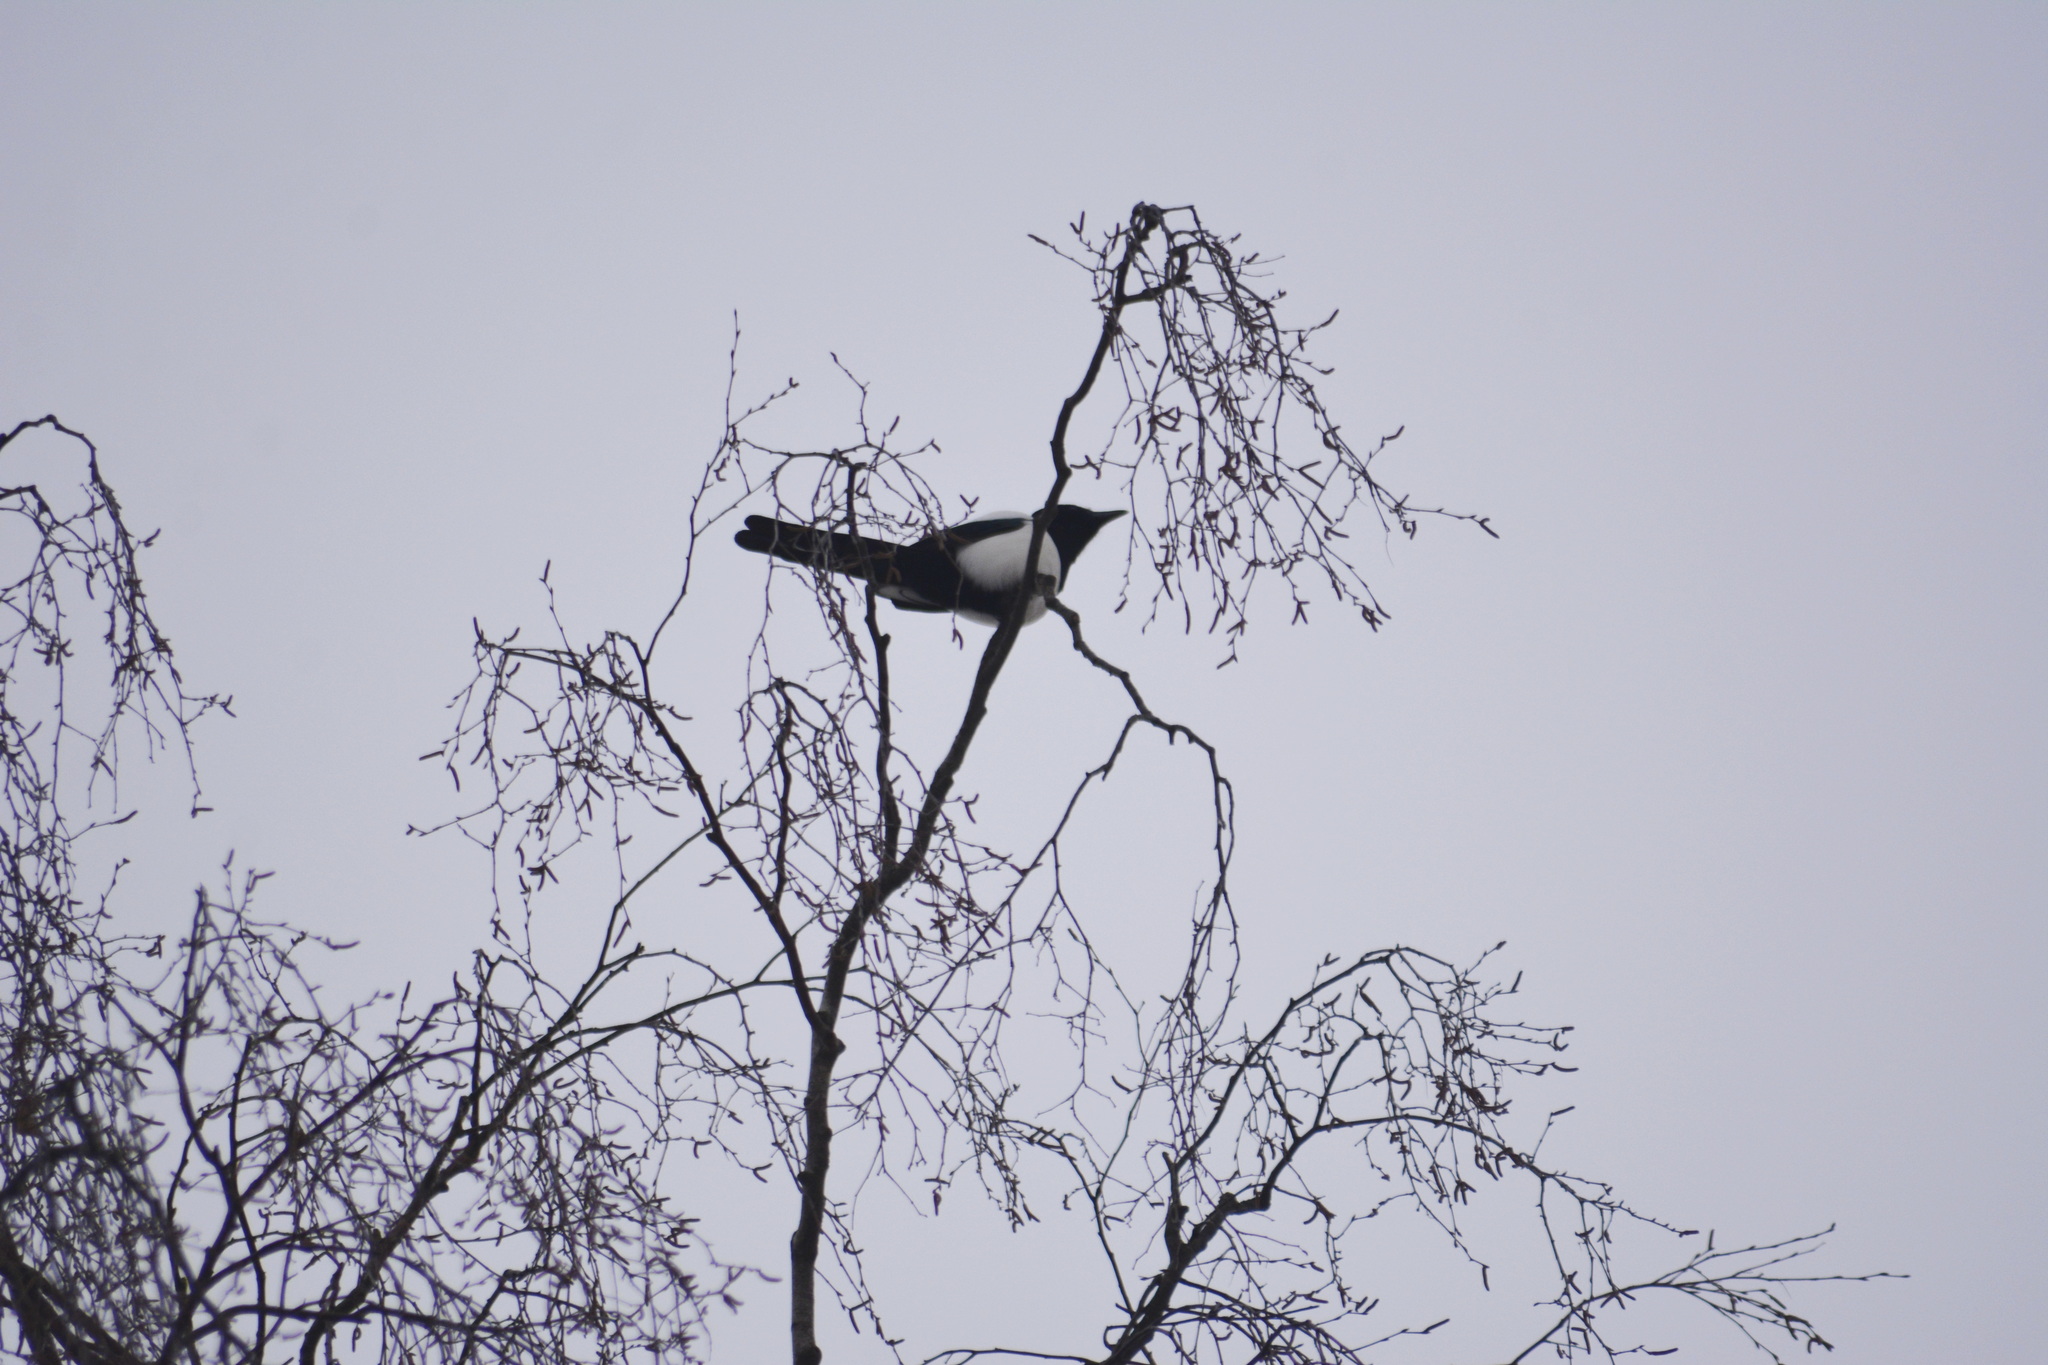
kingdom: Animalia
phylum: Chordata
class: Aves
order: Passeriformes
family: Corvidae
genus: Pica
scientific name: Pica pica
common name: Eurasian magpie
